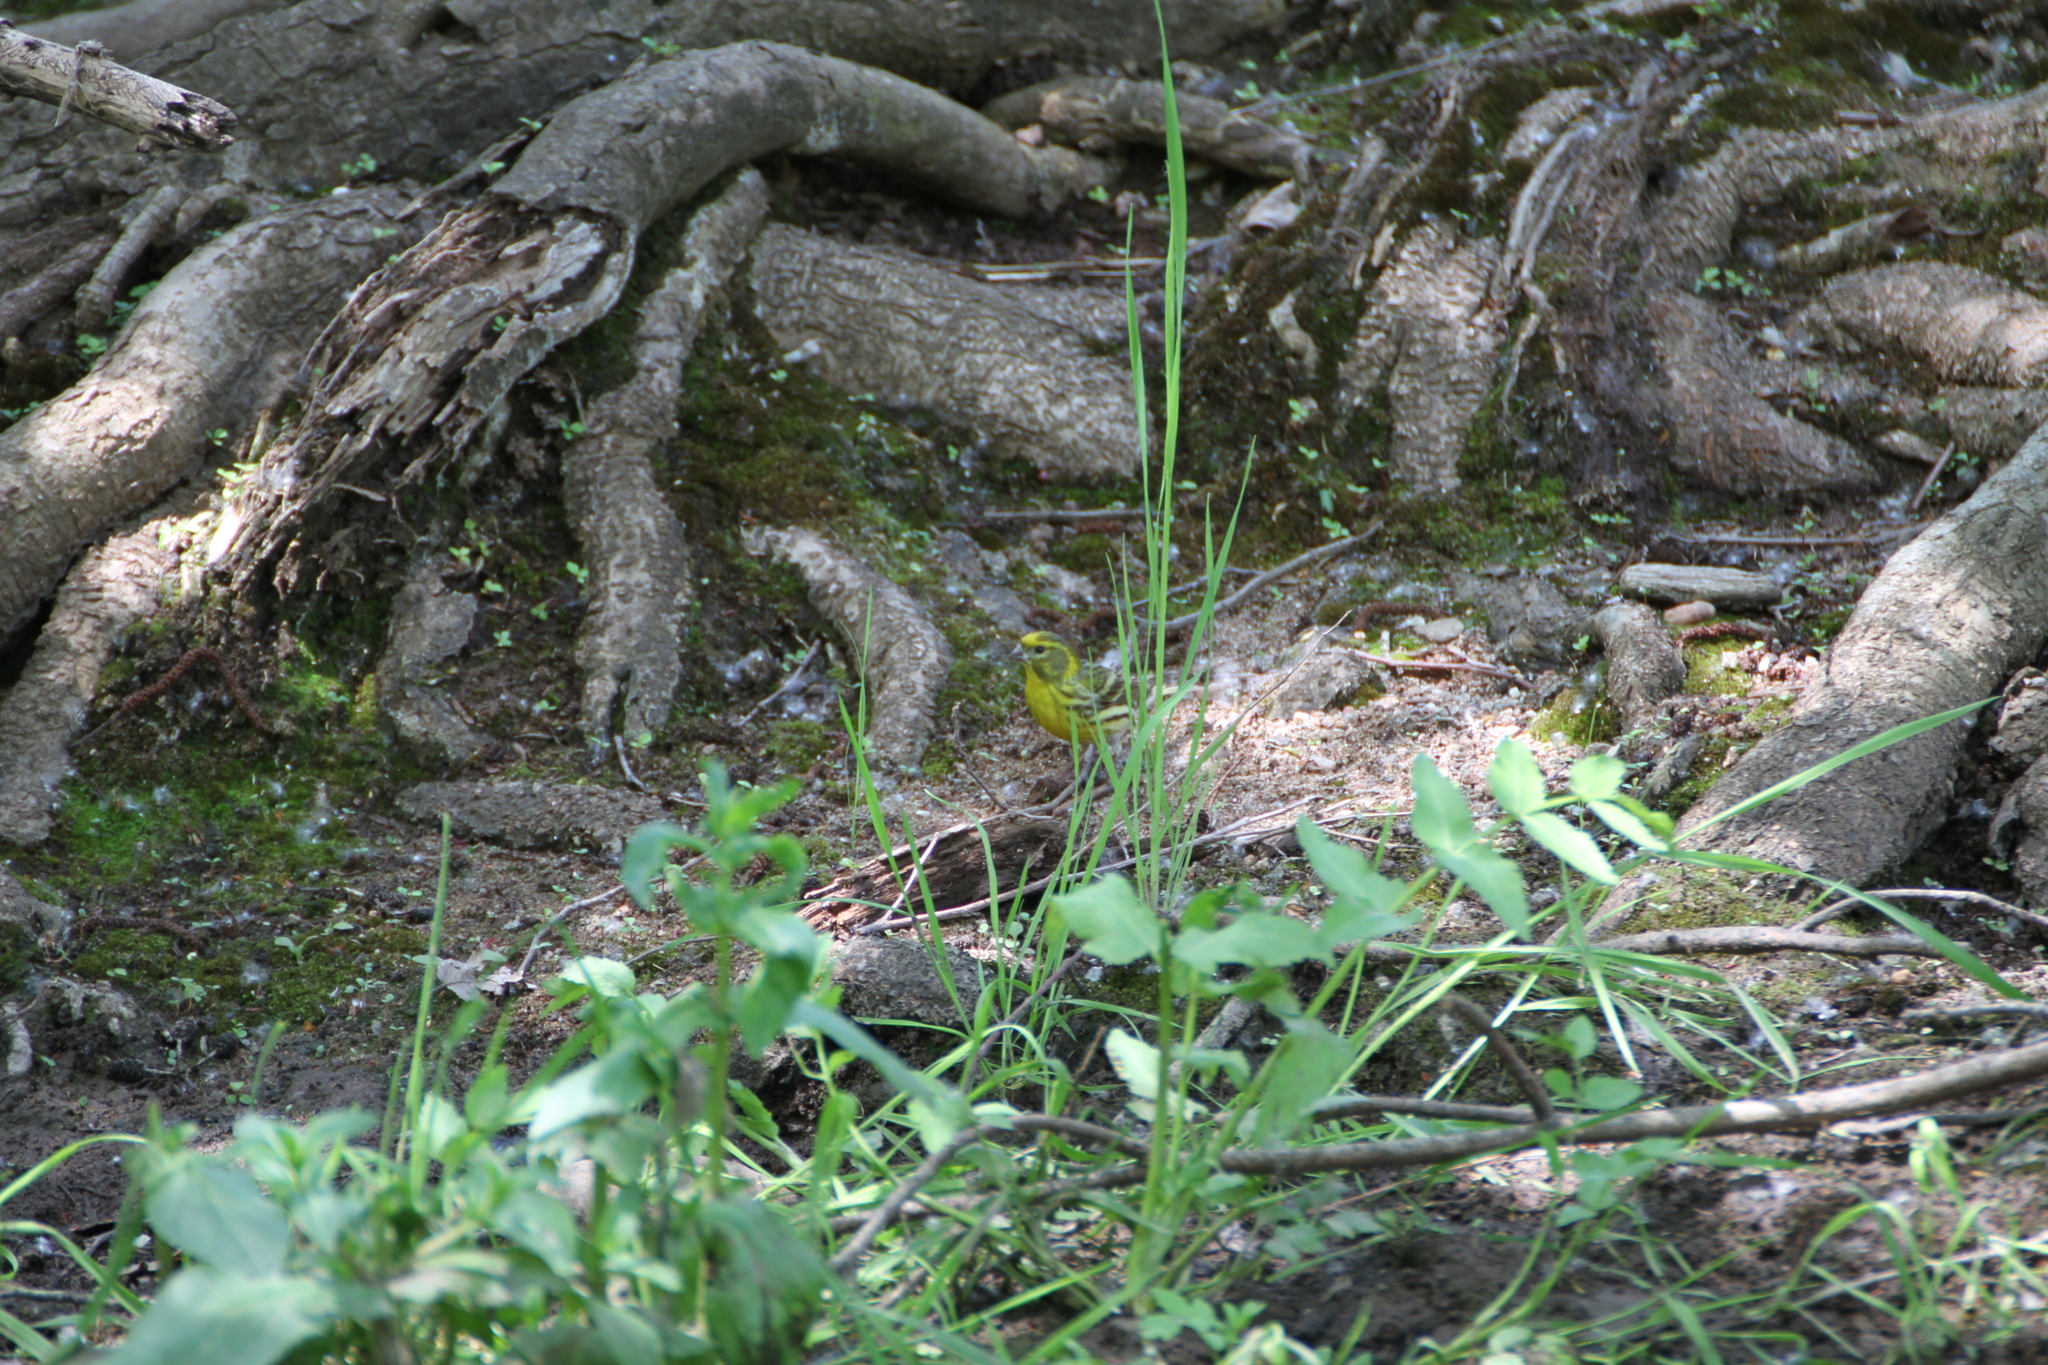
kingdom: Animalia
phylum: Chordata
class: Aves
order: Passeriformes
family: Fringillidae
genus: Serinus
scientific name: Serinus serinus
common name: European serin
